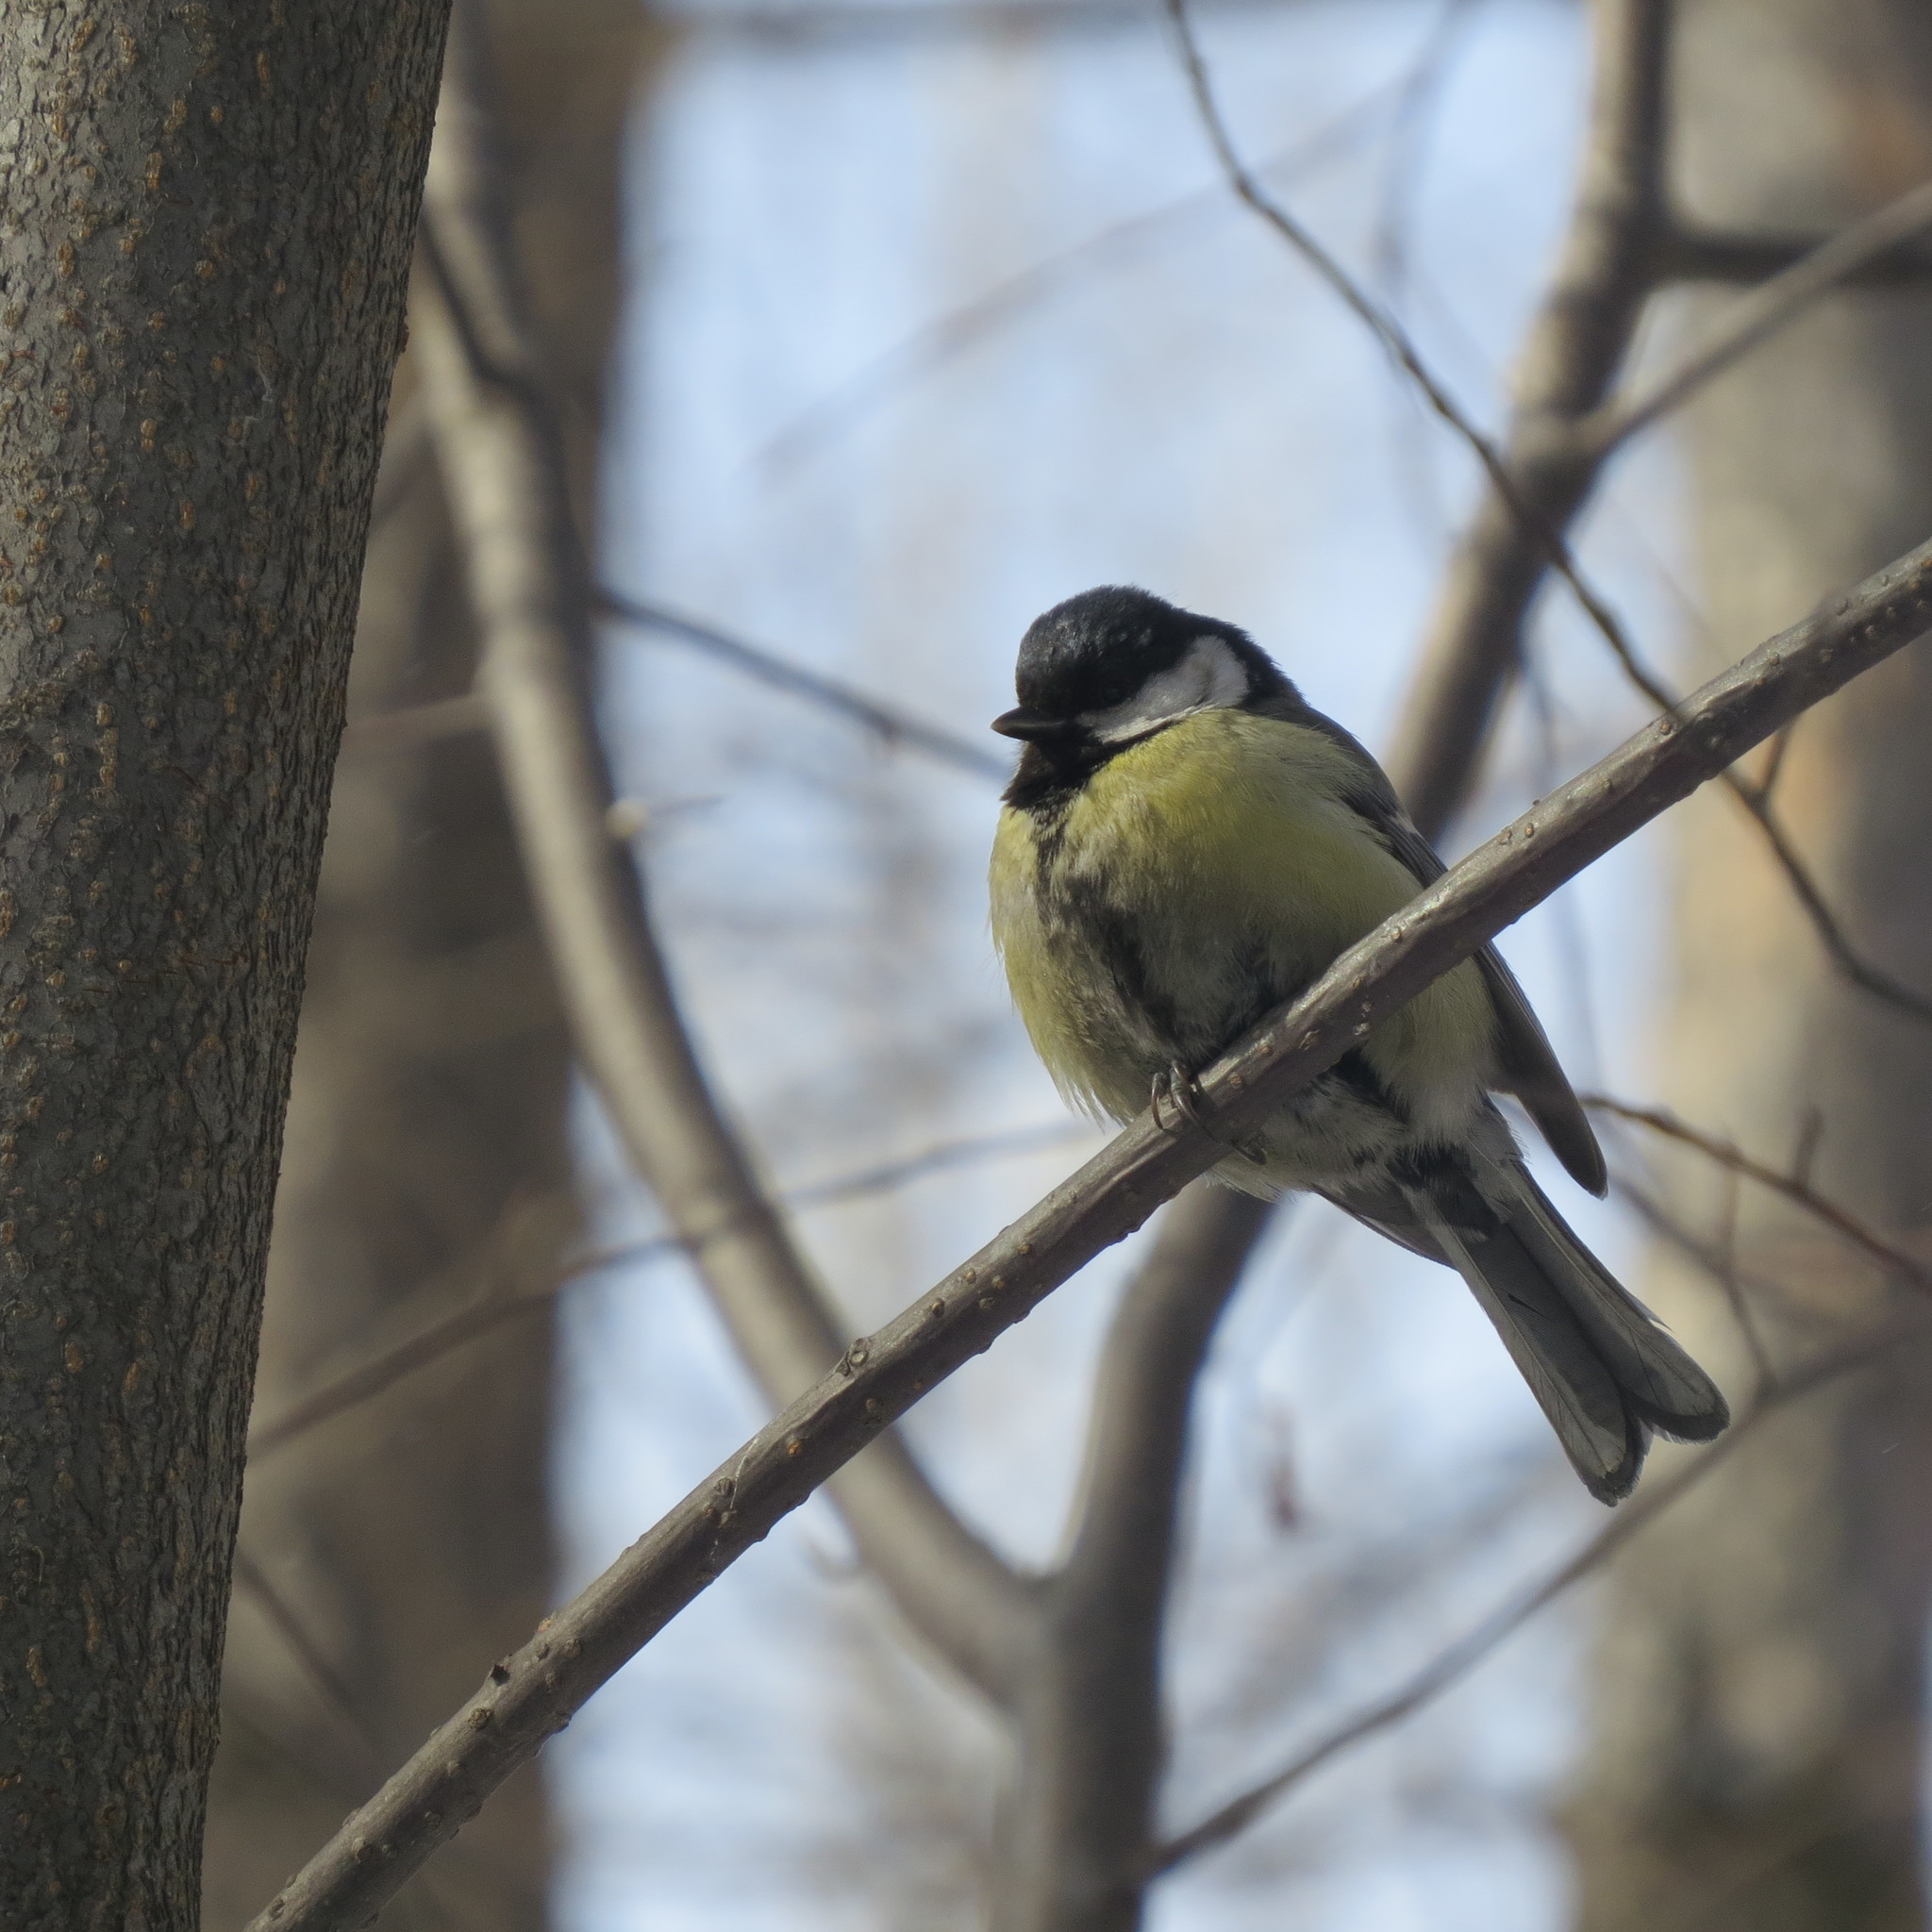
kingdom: Animalia
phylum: Chordata
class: Aves
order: Passeriformes
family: Paridae
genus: Parus
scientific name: Parus major
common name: Great tit
